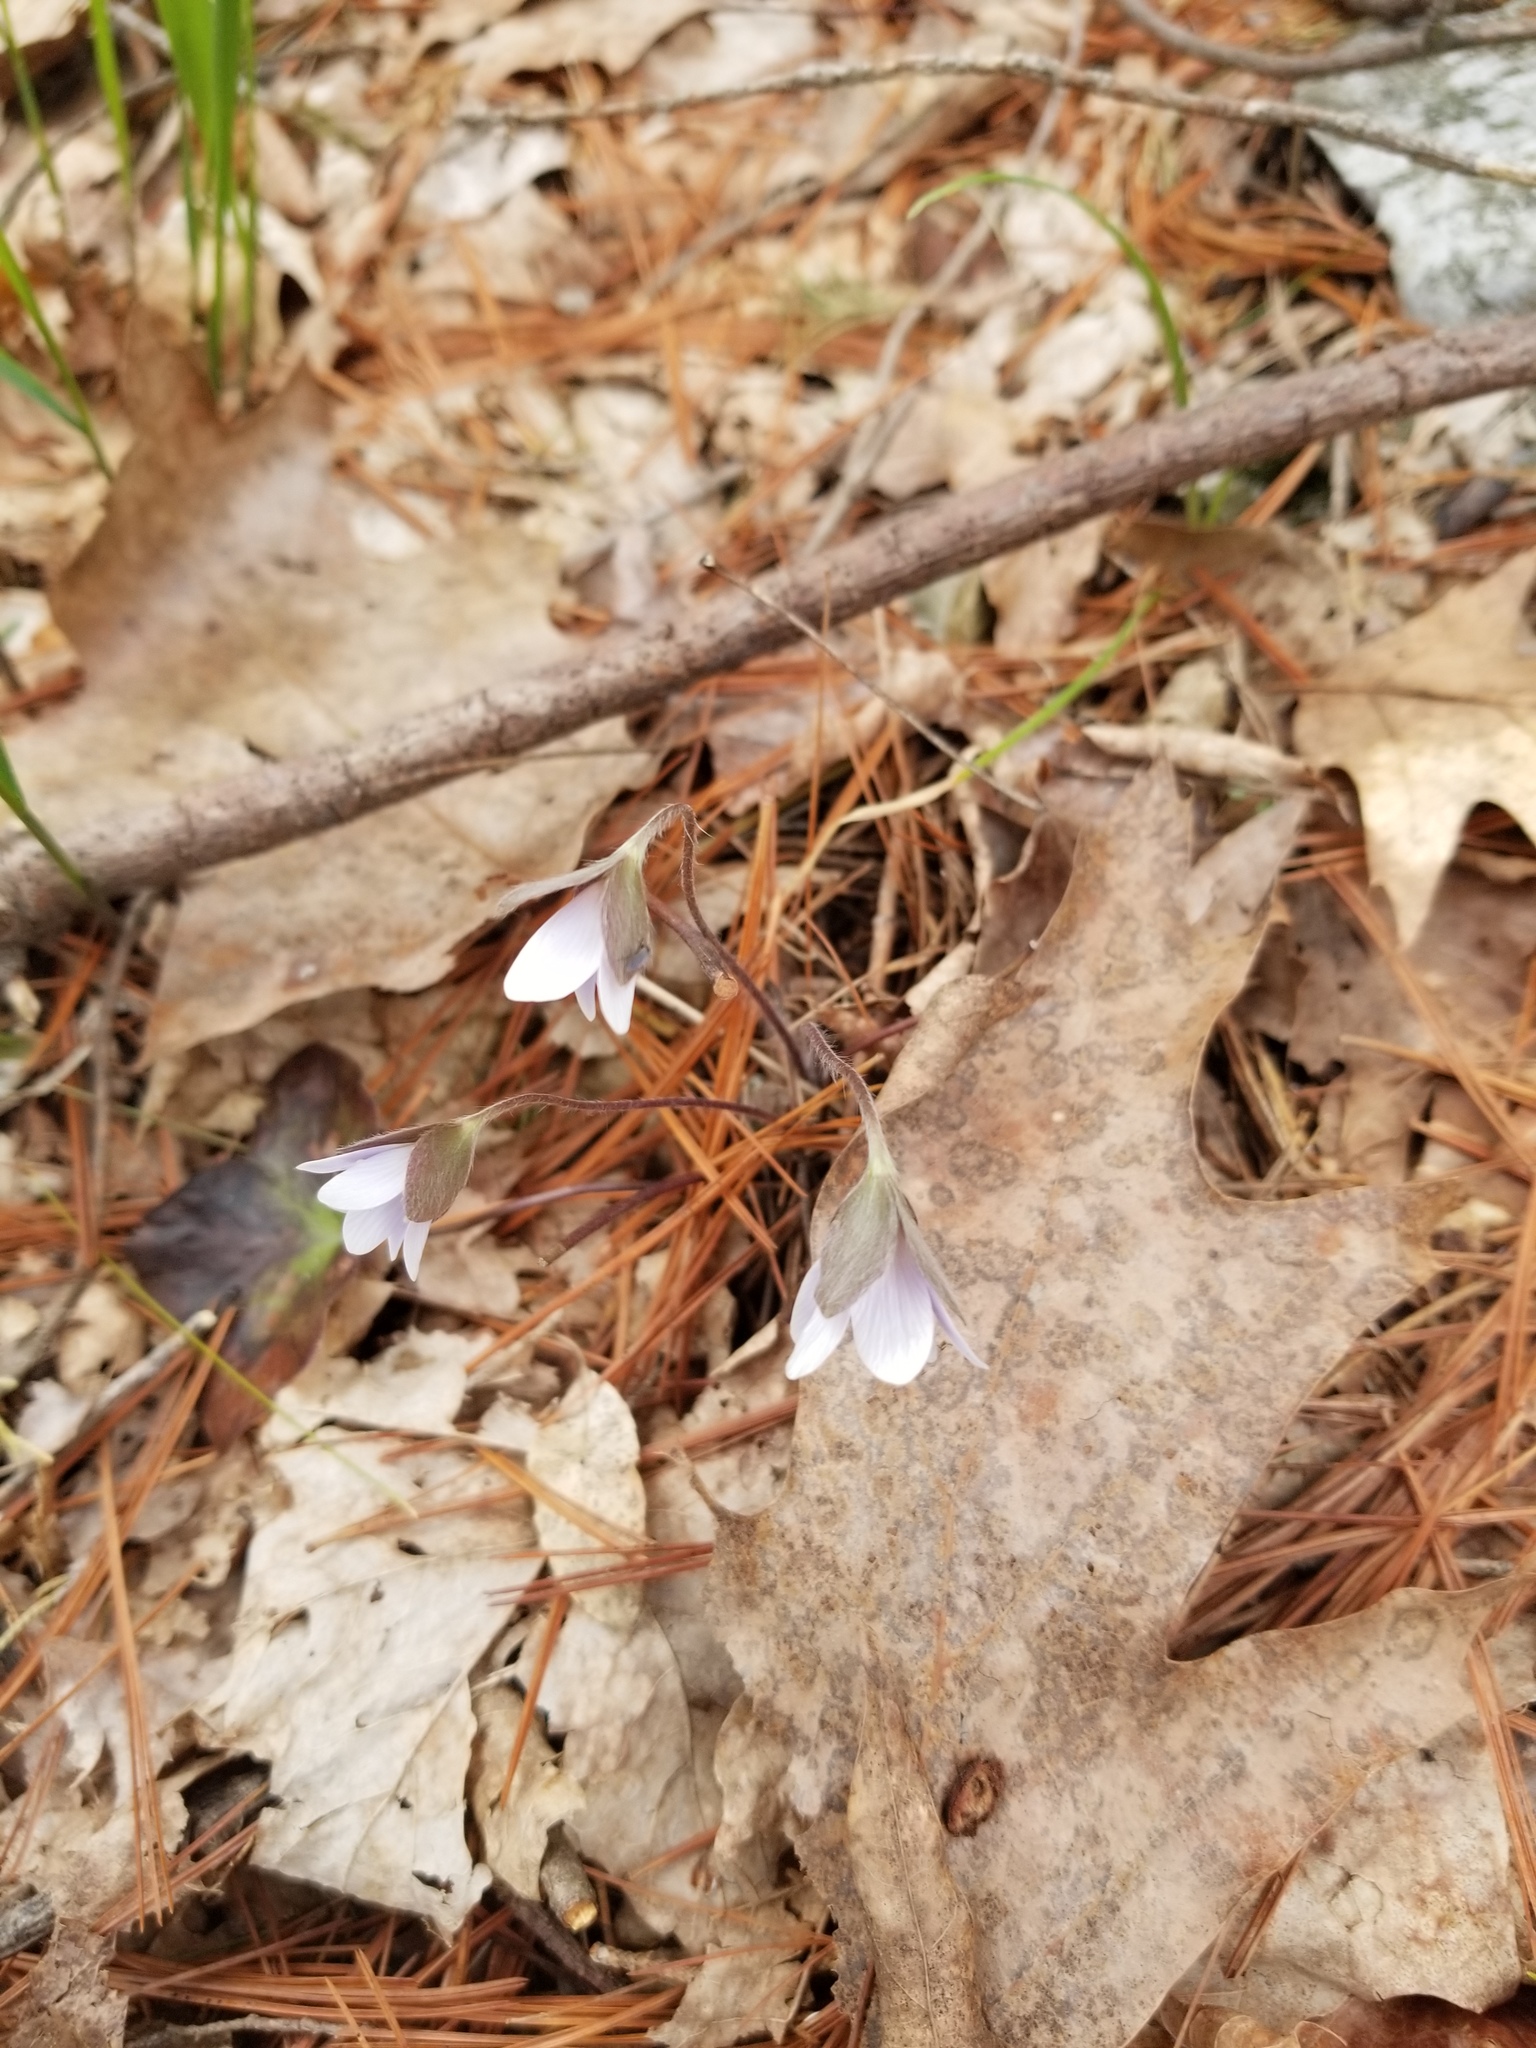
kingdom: Plantae
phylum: Tracheophyta
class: Magnoliopsida
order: Ranunculales
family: Ranunculaceae
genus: Hepatica
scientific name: Hepatica americana
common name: American hepatica
